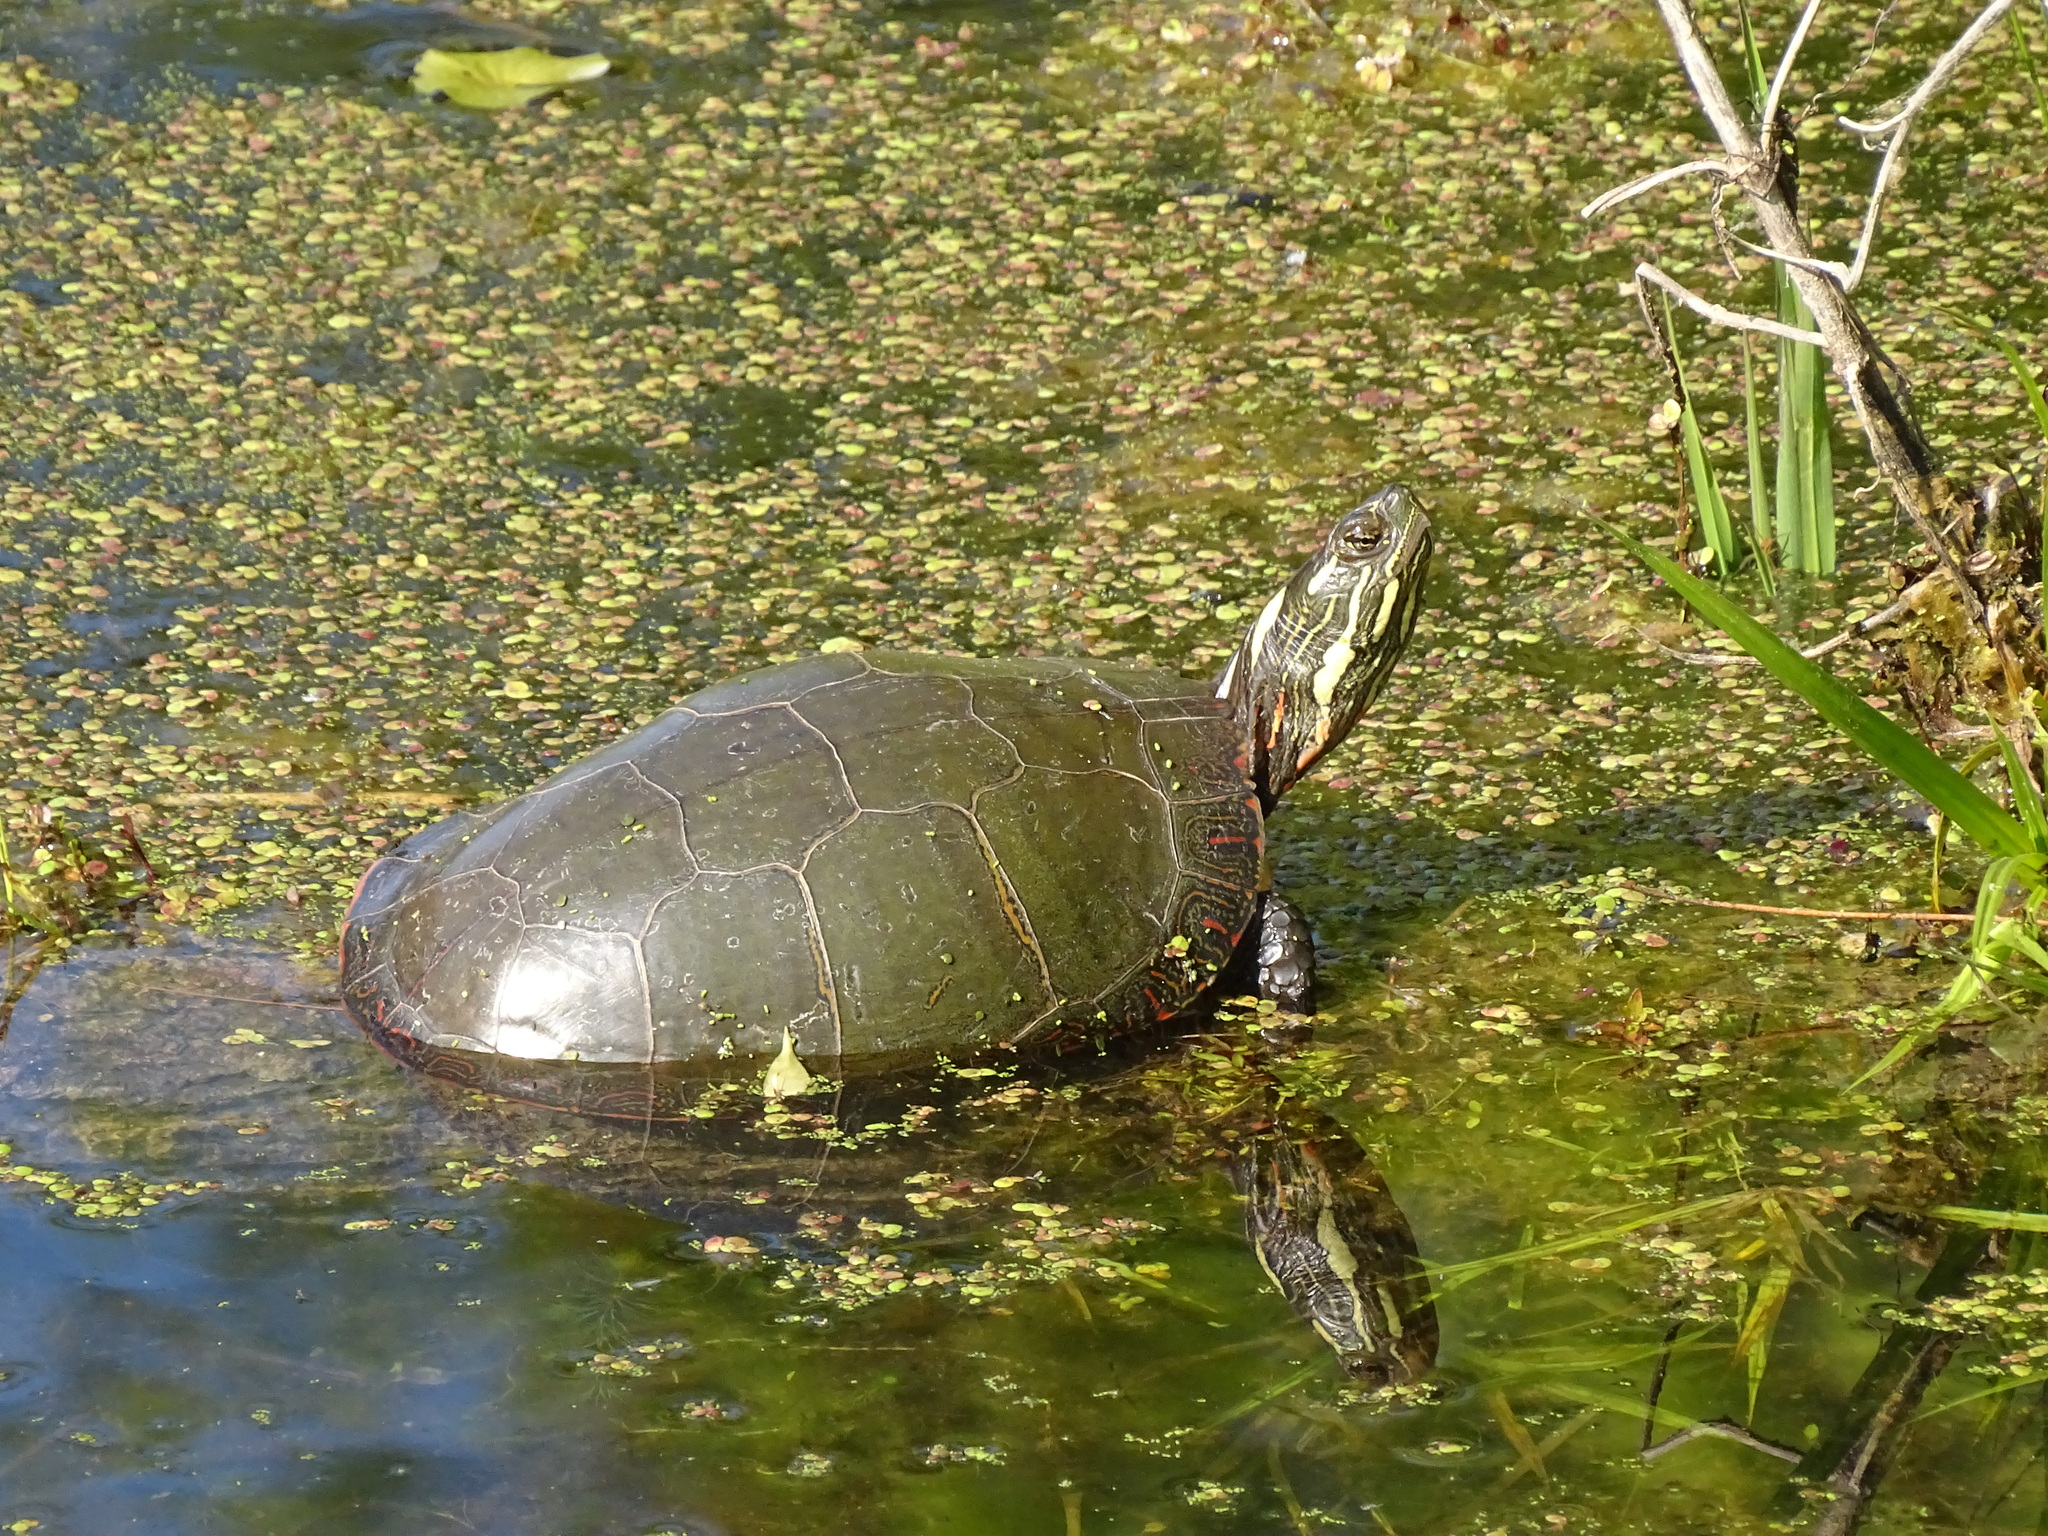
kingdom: Animalia
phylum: Chordata
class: Testudines
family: Emydidae
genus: Chrysemys
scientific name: Chrysemys picta
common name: Painted turtle
